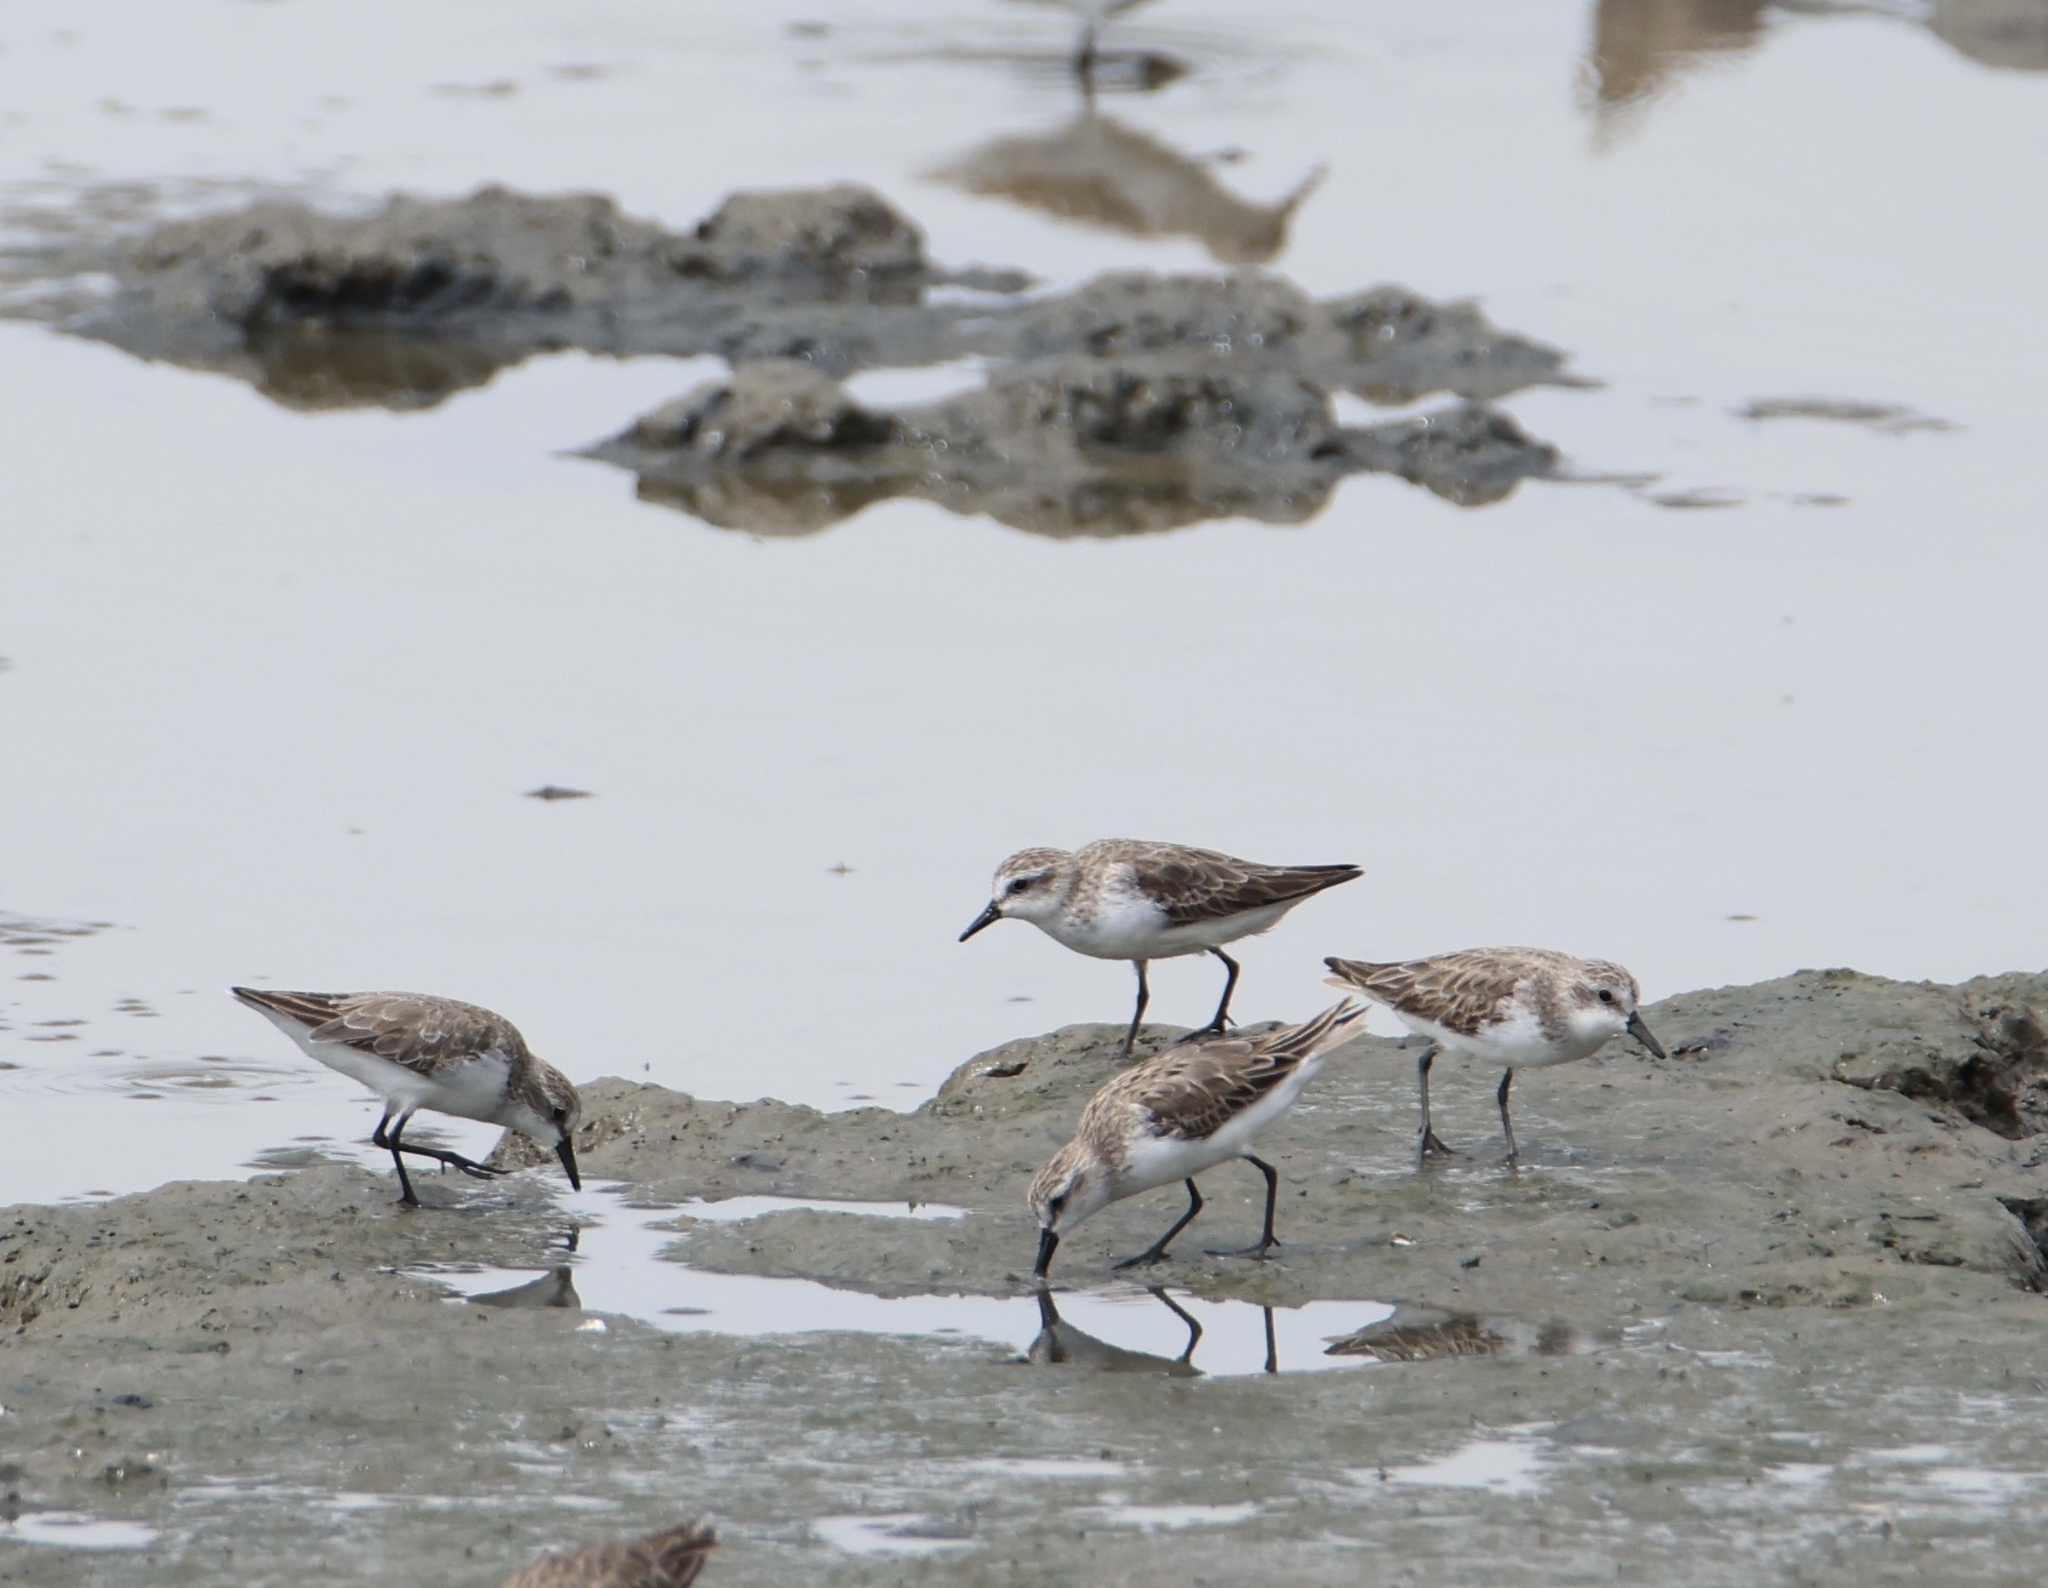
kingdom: Animalia
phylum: Chordata
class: Aves
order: Charadriiformes
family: Scolopacidae
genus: Calidris
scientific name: Calidris pusilla
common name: Semipalmated sandpiper
